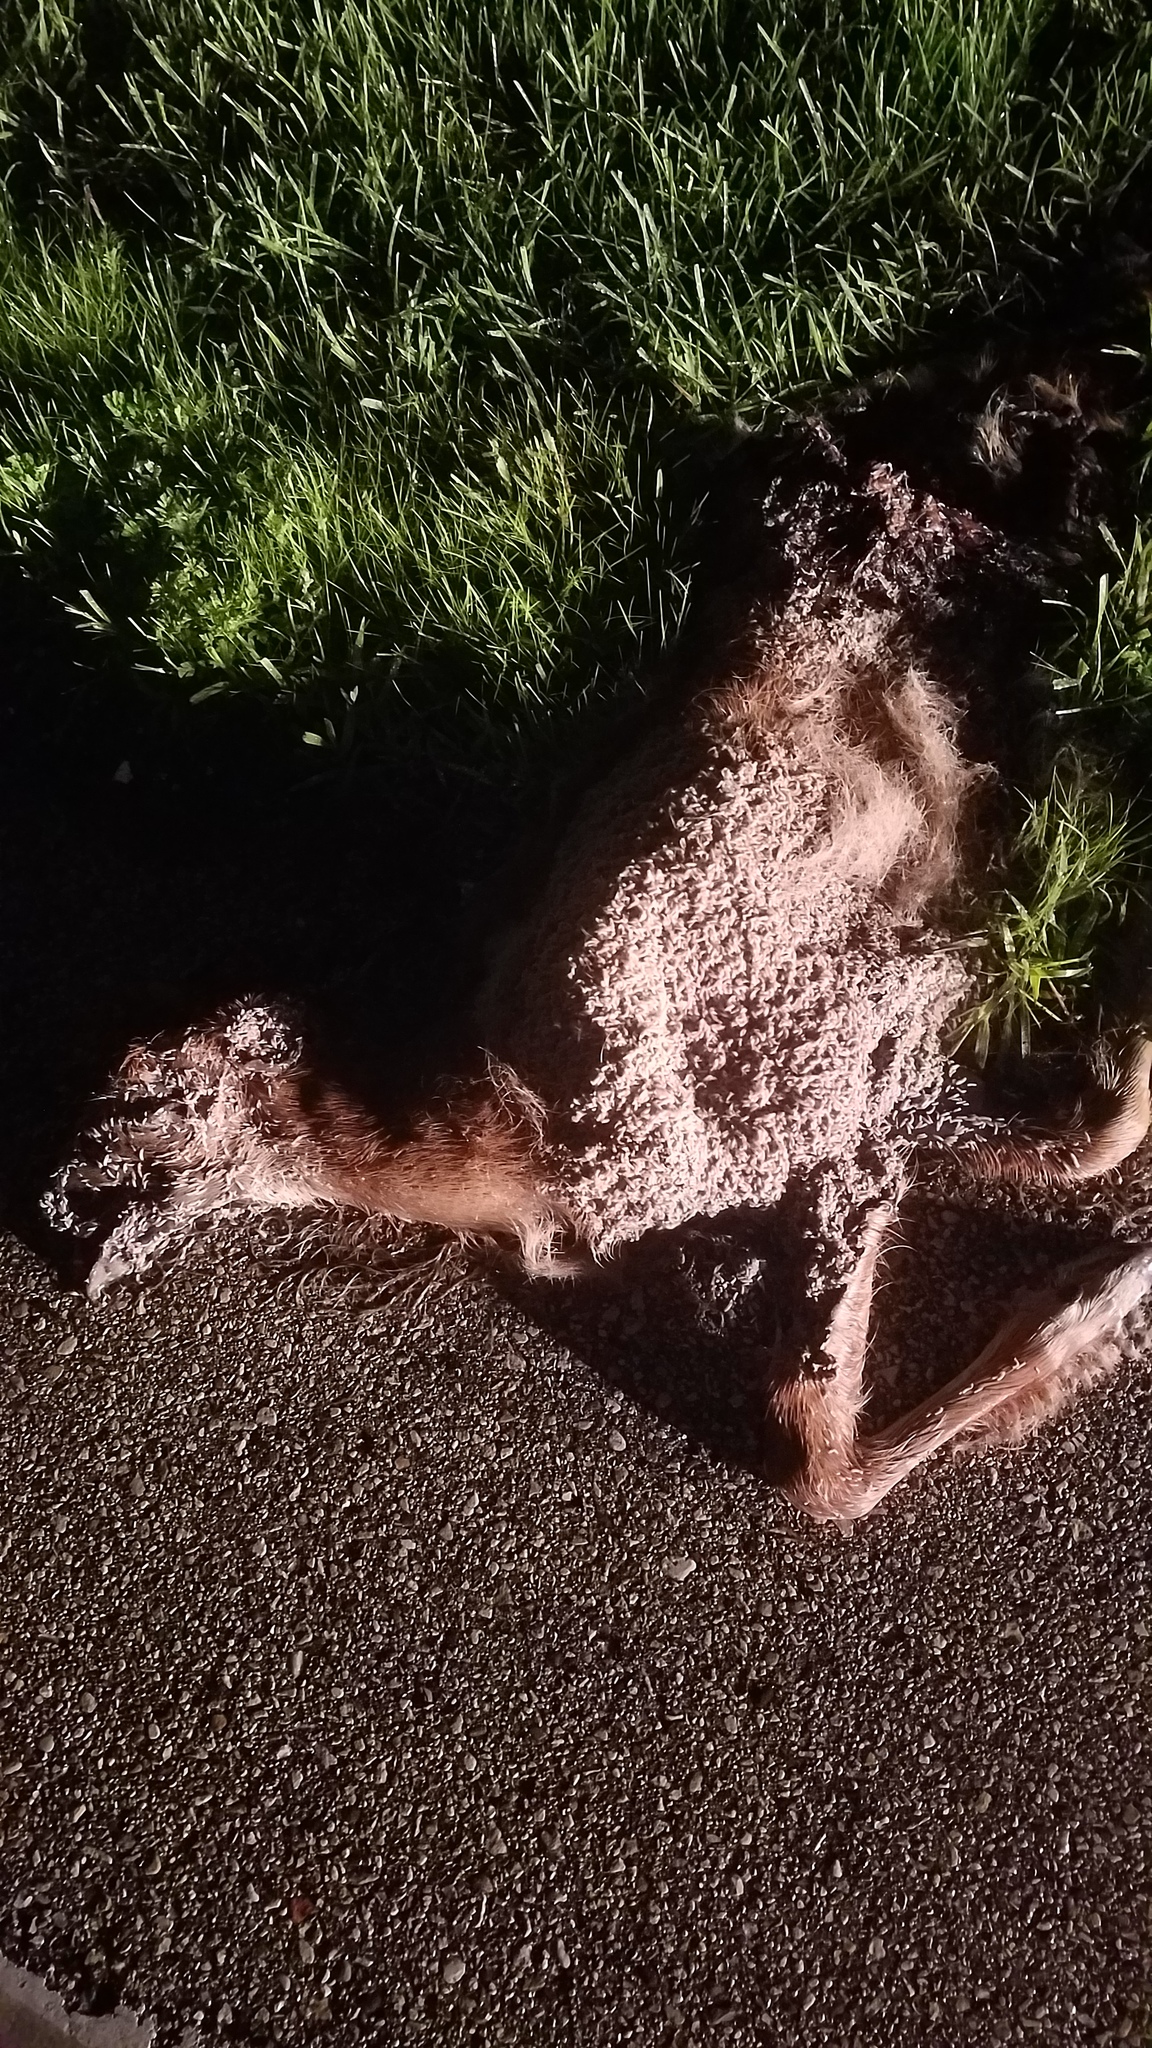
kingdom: Animalia
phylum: Chordata
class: Mammalia
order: Artiodactyla
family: Cervidae
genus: Odocoileus
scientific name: Odocoileus virginianus
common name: White-tailed deer
